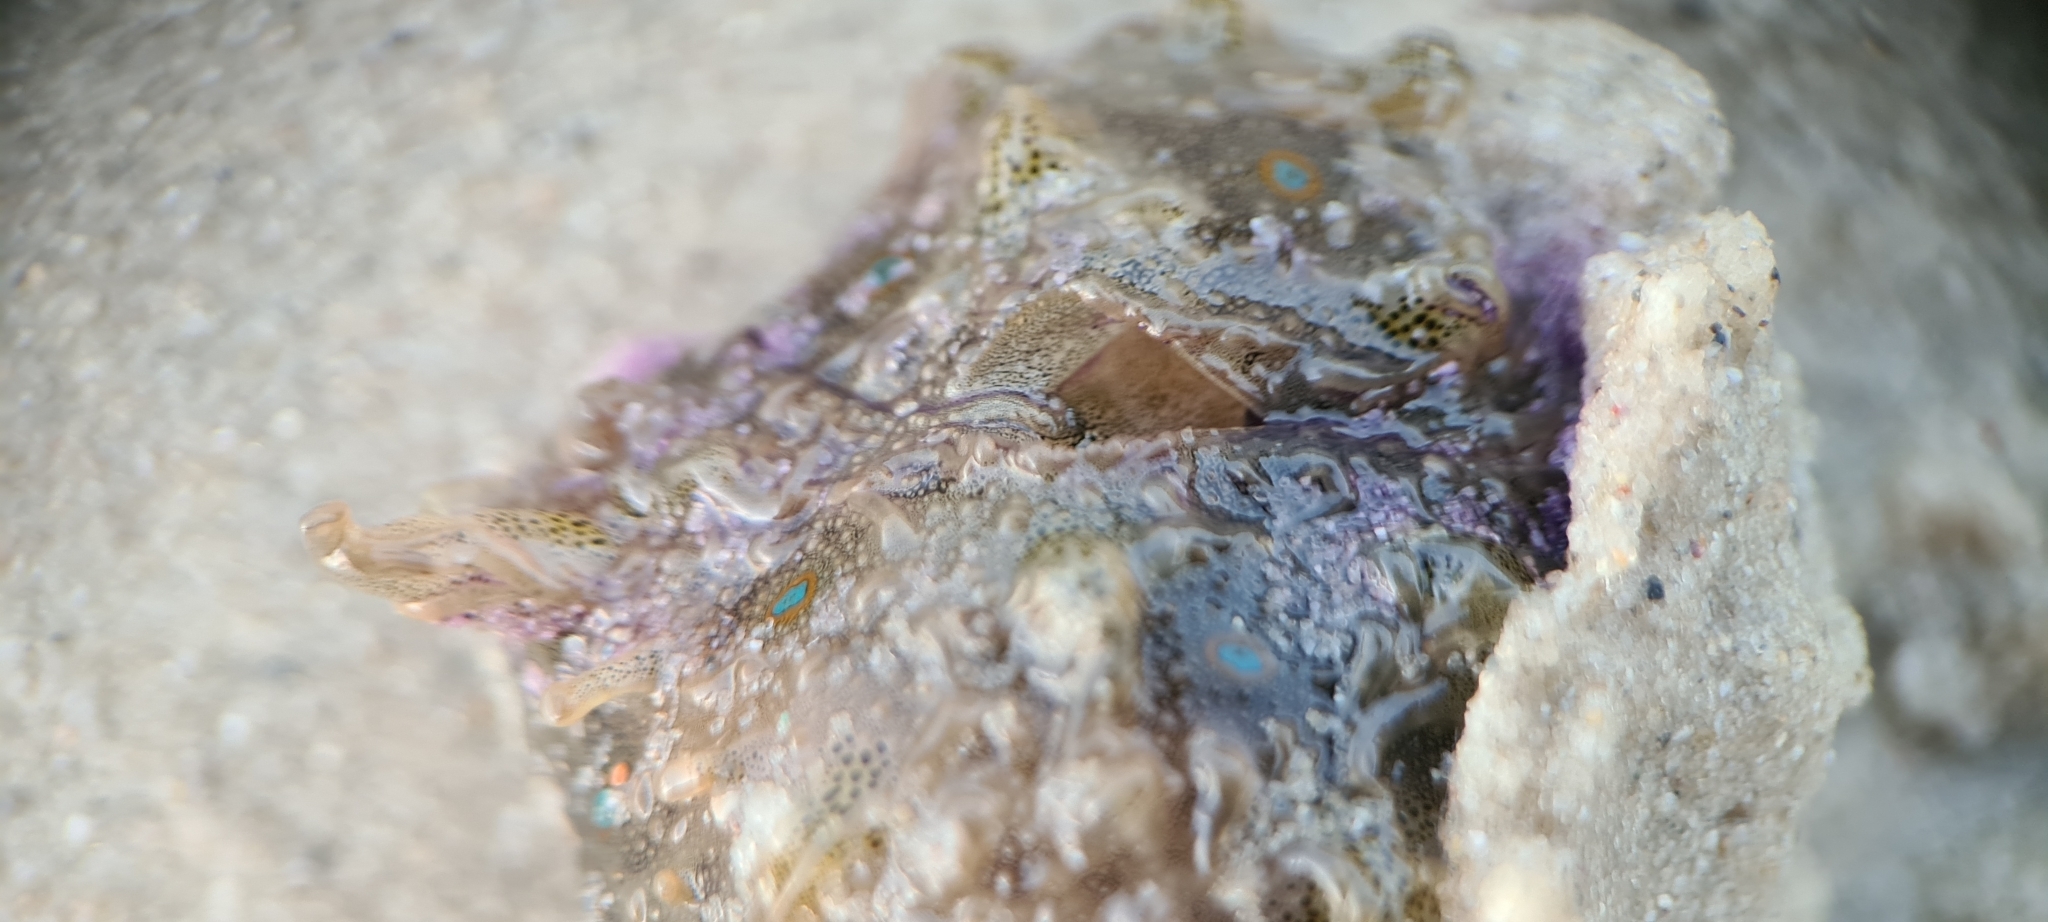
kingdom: Animalia
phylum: Mollusca
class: Gastropoda
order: Aplysiida
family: Aplysiidae
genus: Bursatella
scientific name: Bursatella leachii
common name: Shaggy sea hare
